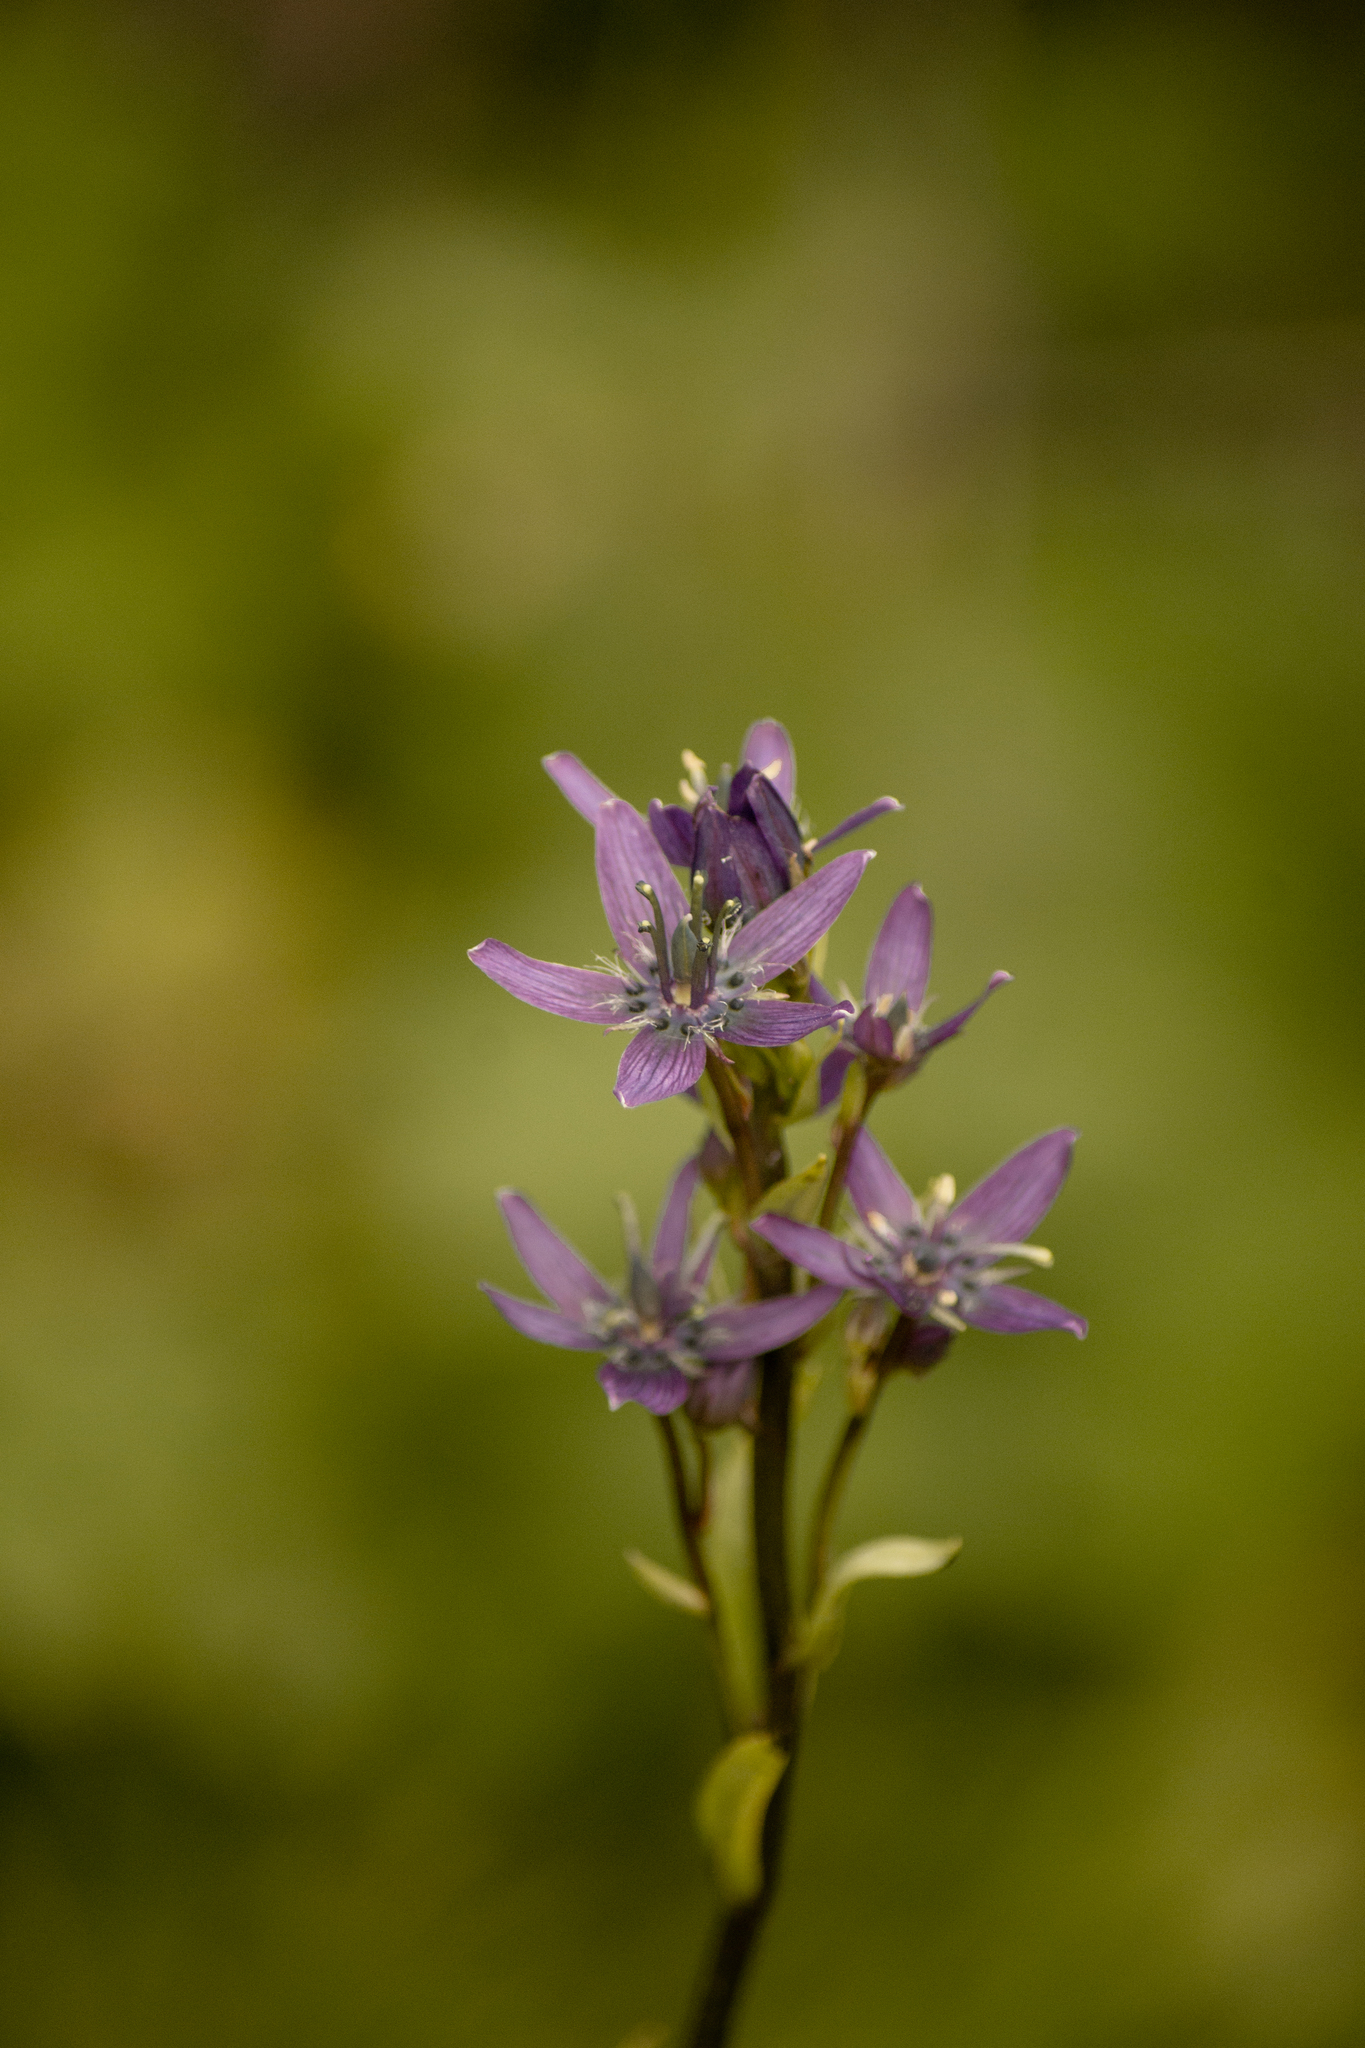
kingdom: Plantae
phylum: Tracheophyta
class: Magnoliopsida
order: Gentianales
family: Gentianaceae
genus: Swertia
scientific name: Swertia obtusa
